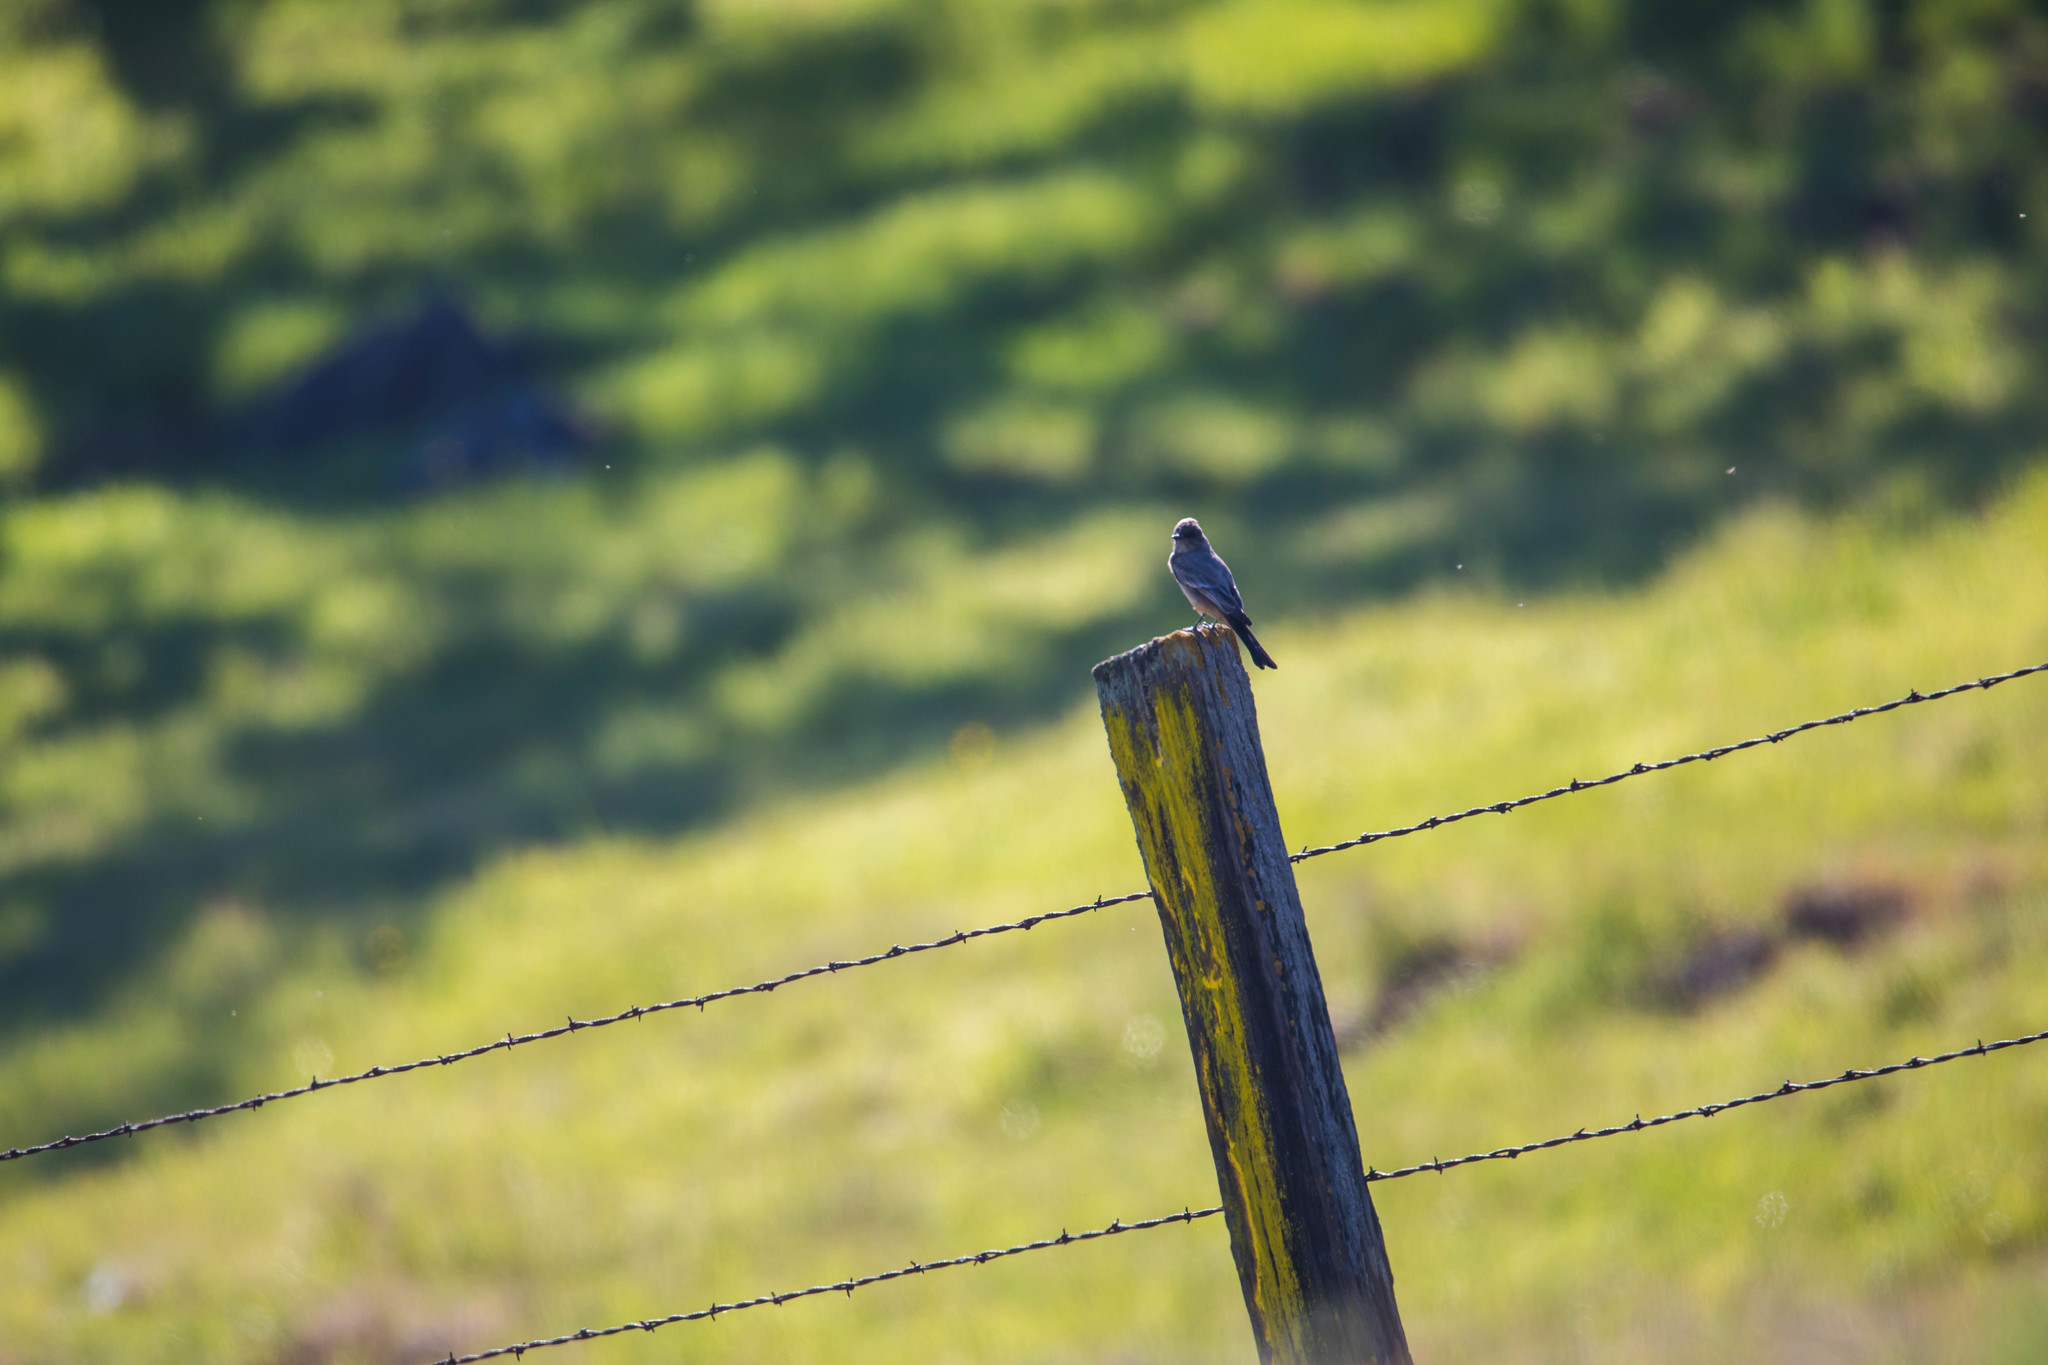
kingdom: Animalia
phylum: Chordata
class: Aves
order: Passeriformes
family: Tyrannidae
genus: Sayornis
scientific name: Sayornis saya
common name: Say's phoebe
